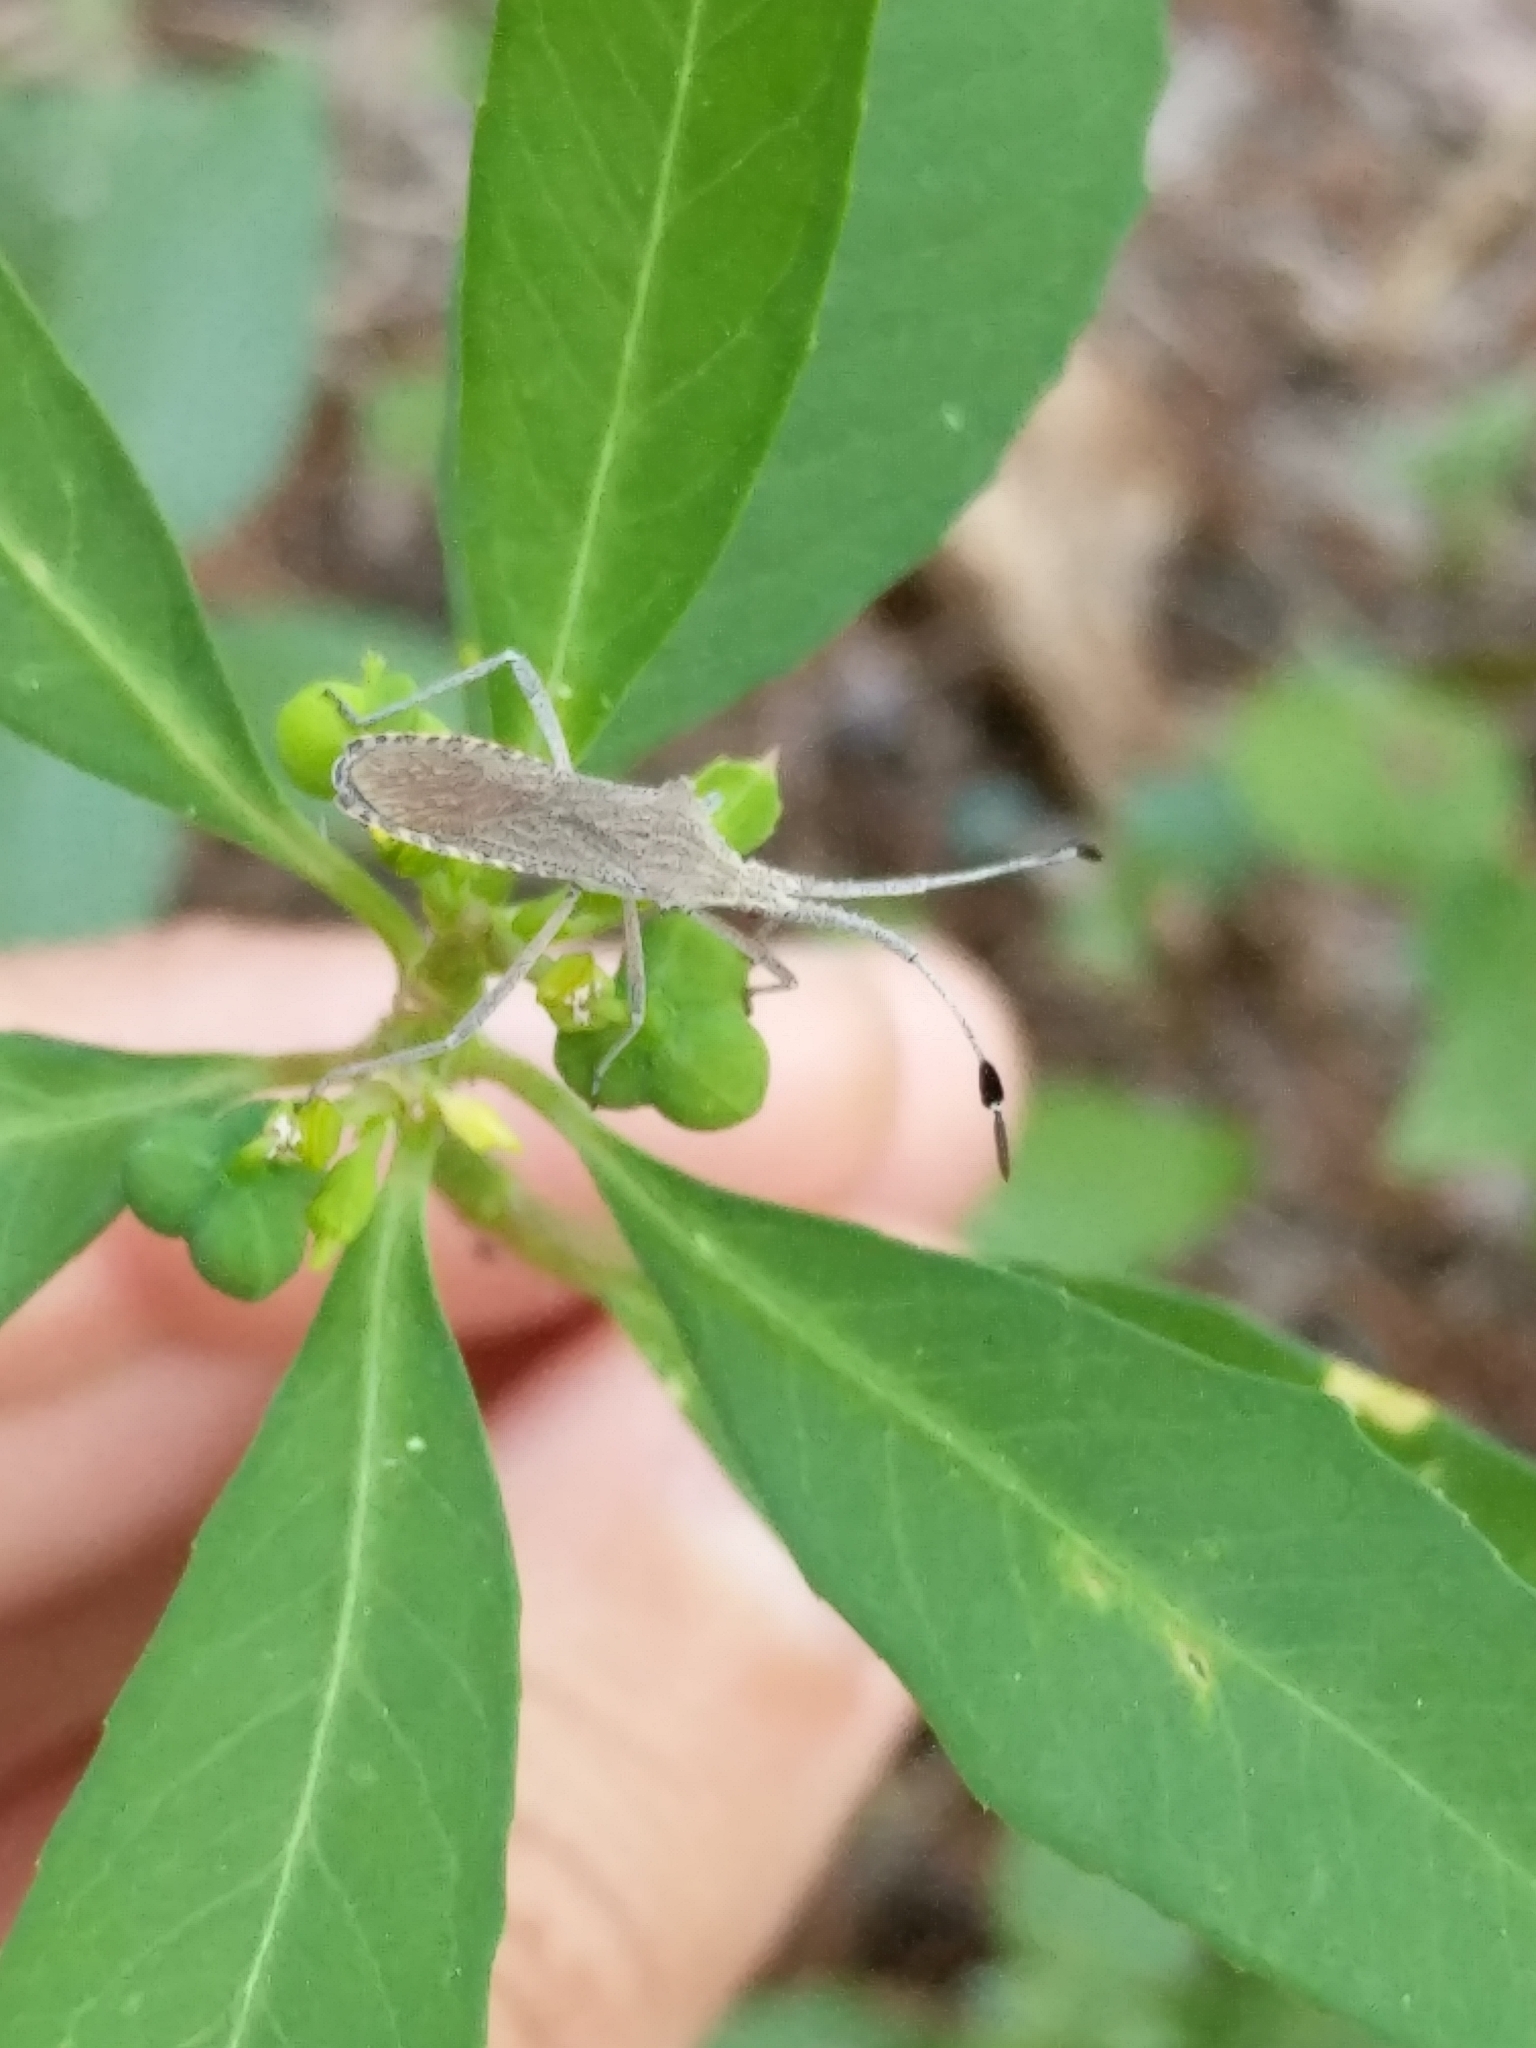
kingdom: Animalia
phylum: Arthropoda
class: Insecta
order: Hemiptera
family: Coreidae
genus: Chariesterus
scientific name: Chariesterus antennator
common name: Flat horned coreid
